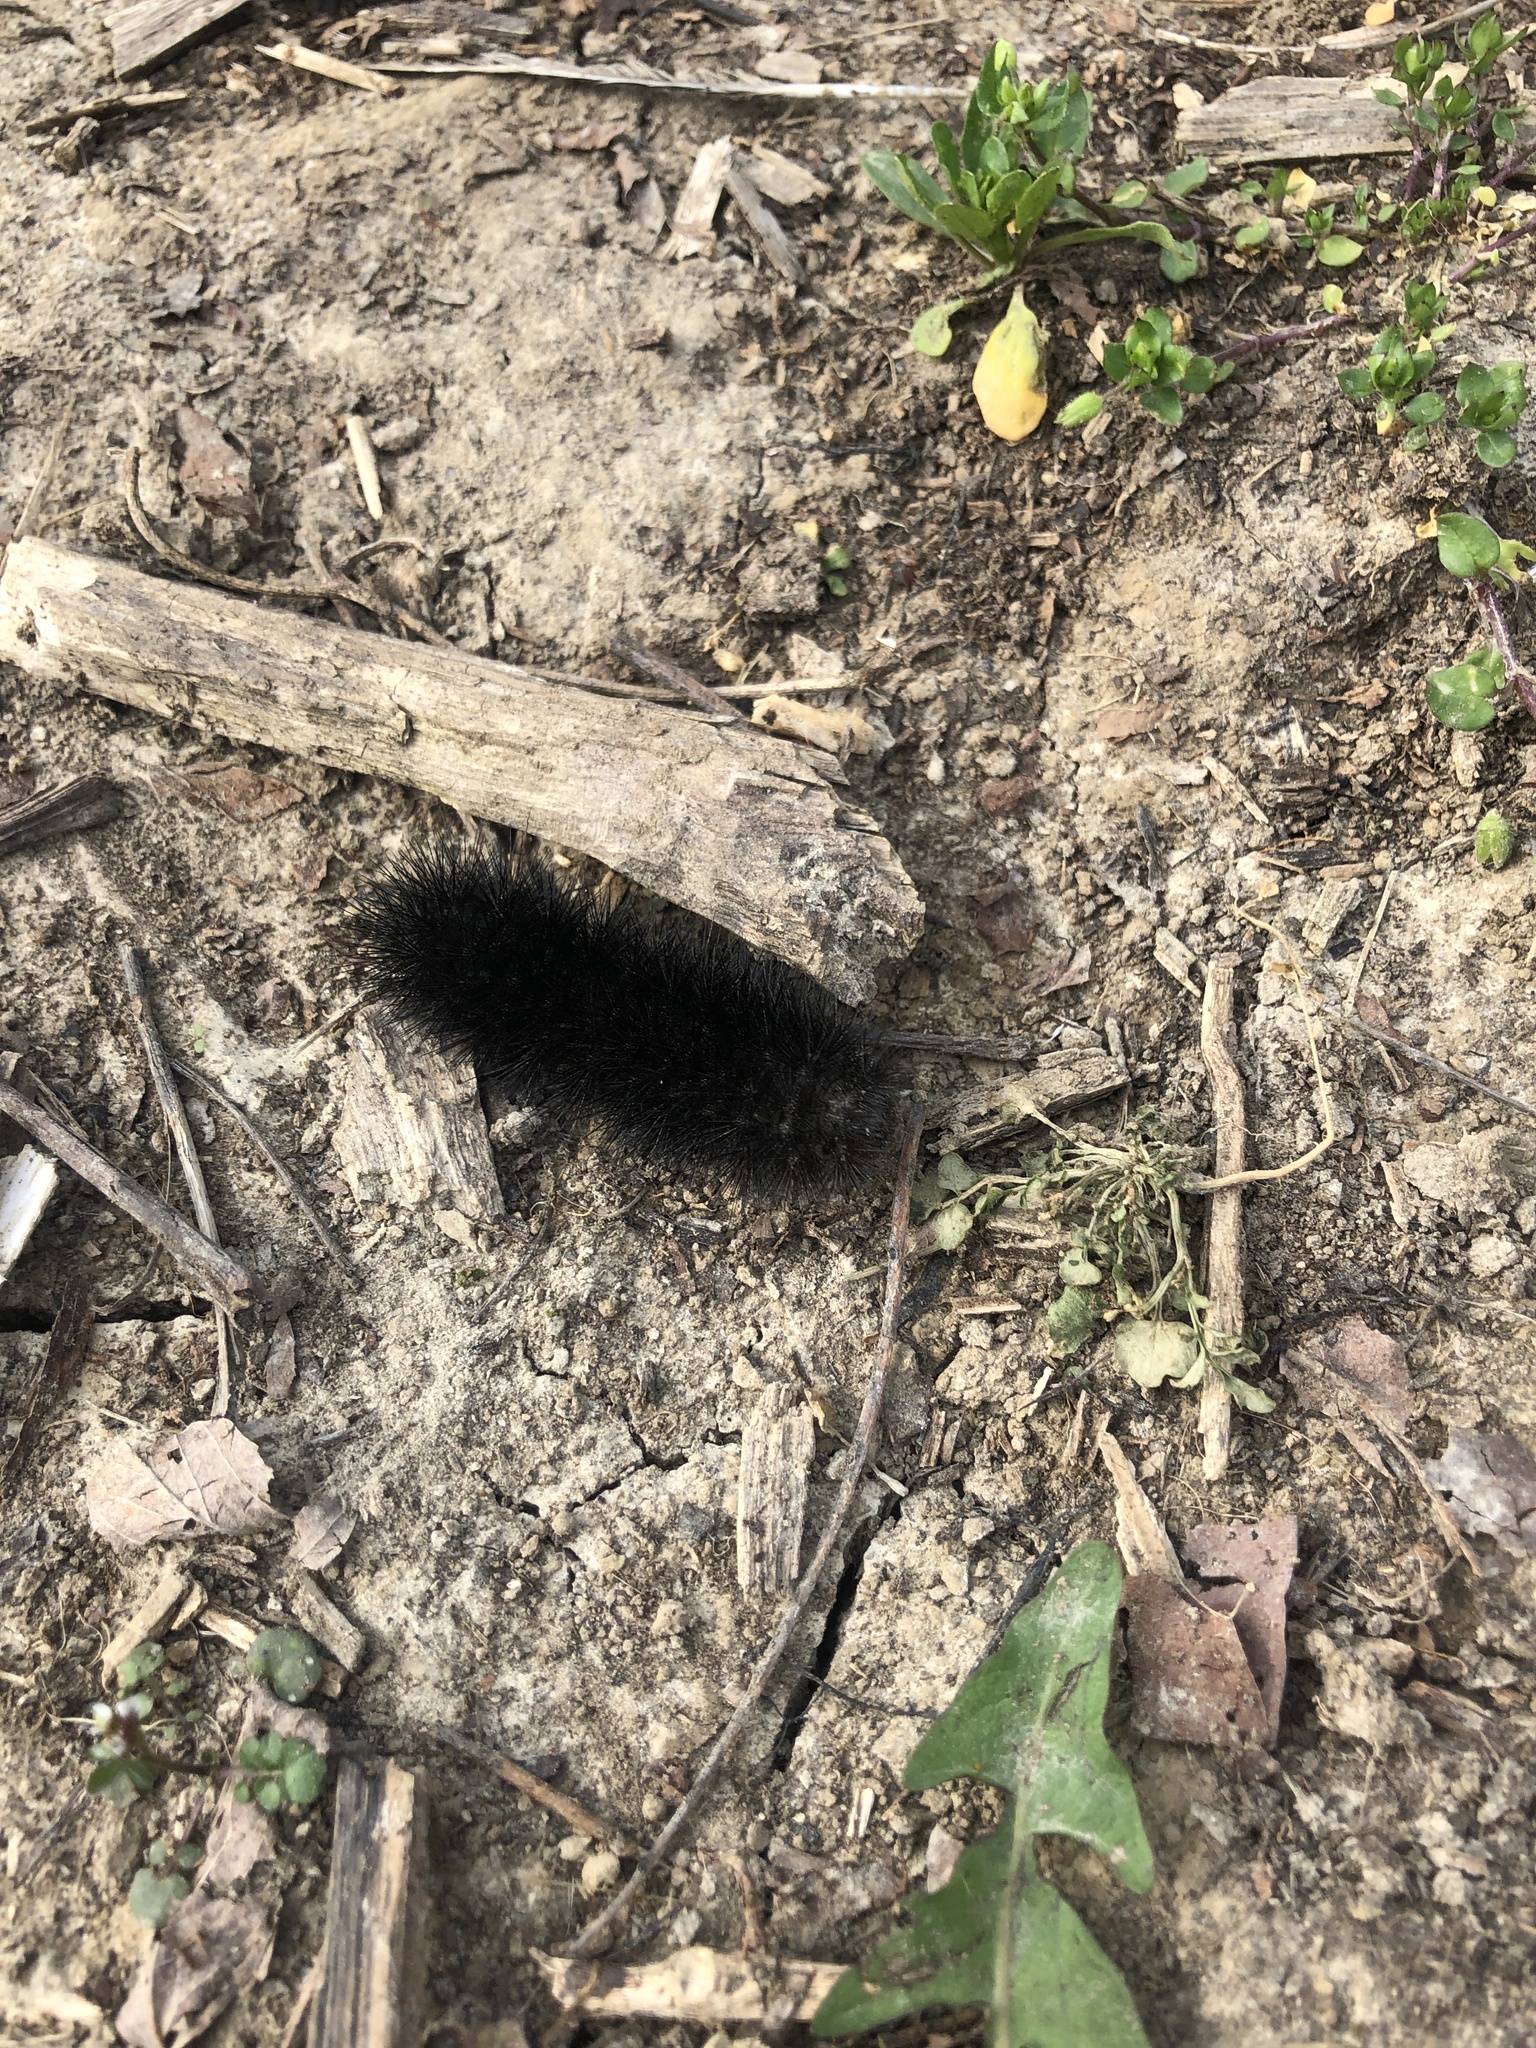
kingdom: Animalia
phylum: Arthropoda
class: Insecta
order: Lepidoptera
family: Erebidae
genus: Pyrrharctia
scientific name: Pyrrharctia isabella
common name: Isabella tiger moth
